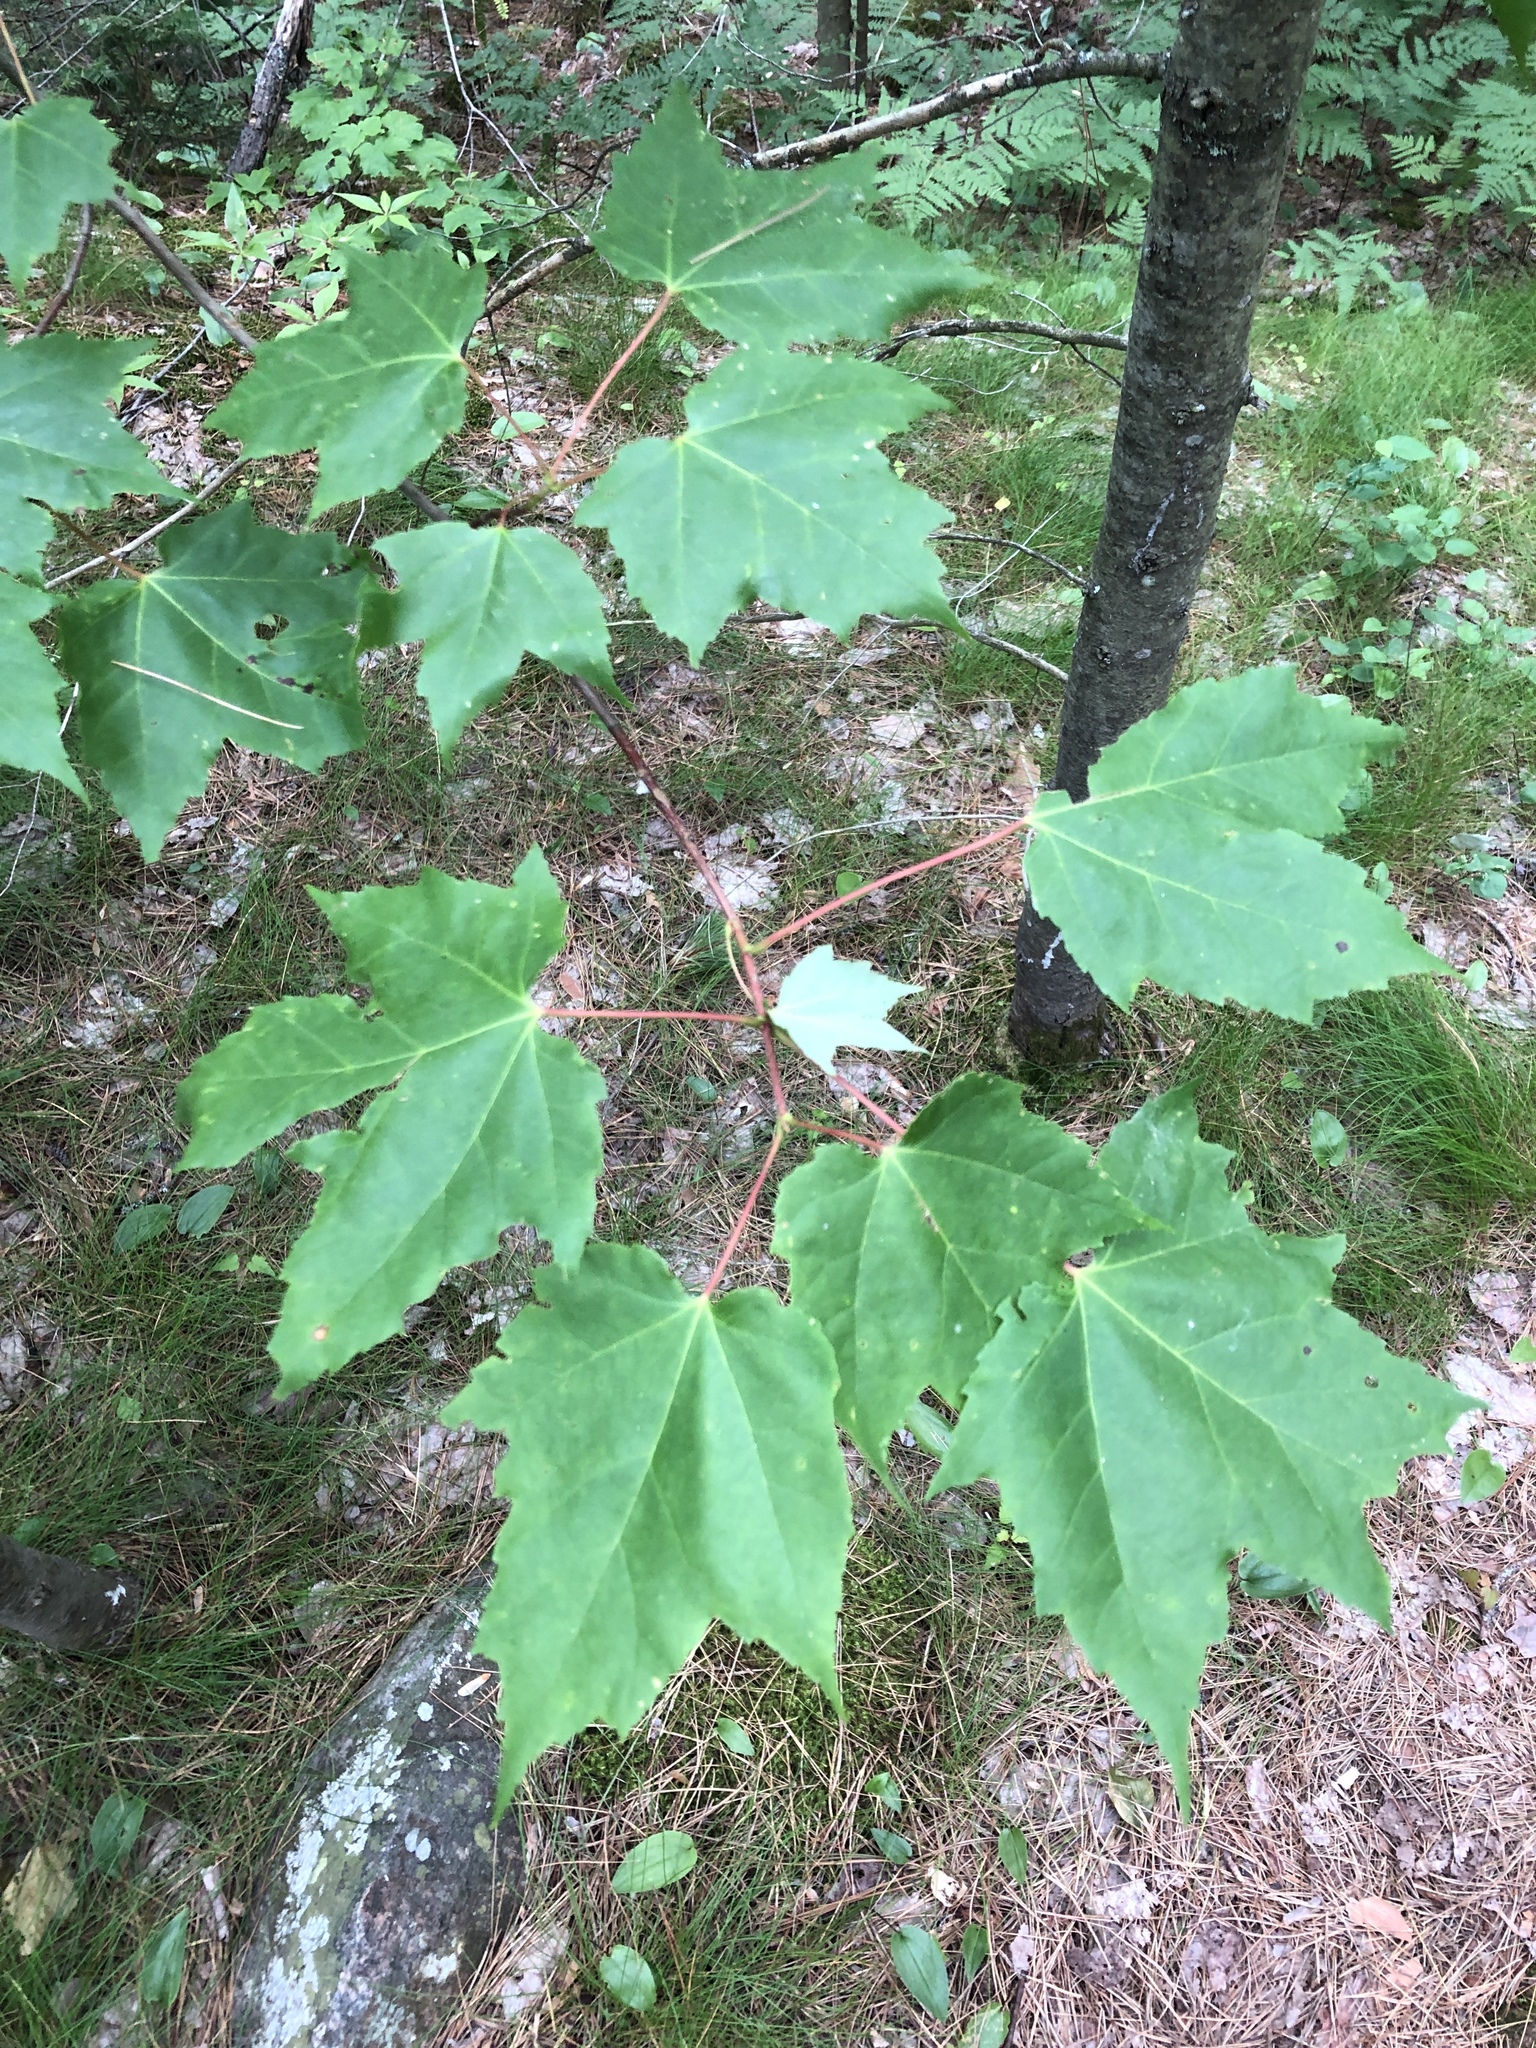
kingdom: Plantae
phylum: Tracheophyta
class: Magnoliopsida
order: Sapindales
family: Sapindaceae
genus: Acer
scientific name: Acer rubrum
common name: Red maple
